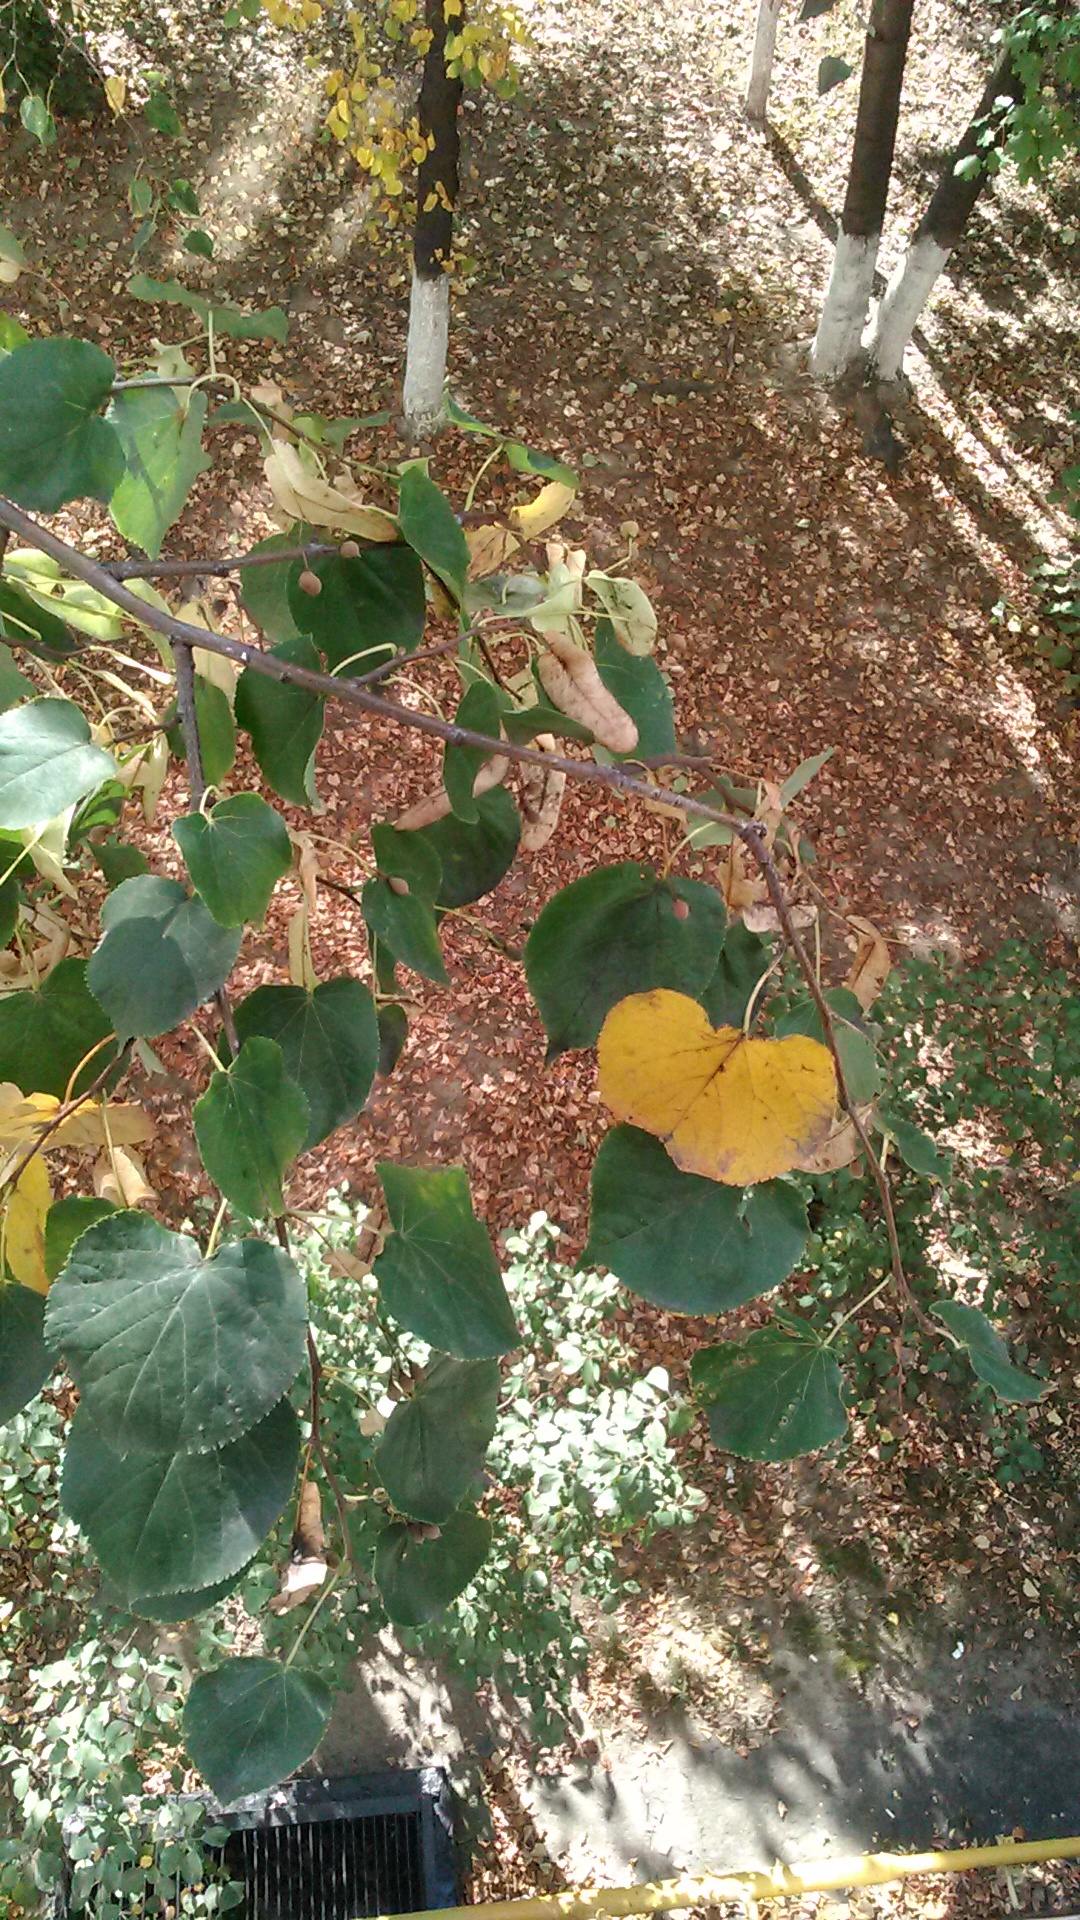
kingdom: Plantae
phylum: Tracheophyta
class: Magnoliopsida
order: Malvales
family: Malvaceae
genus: Tilia
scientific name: Tilia cordata
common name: Small-leaved lime
